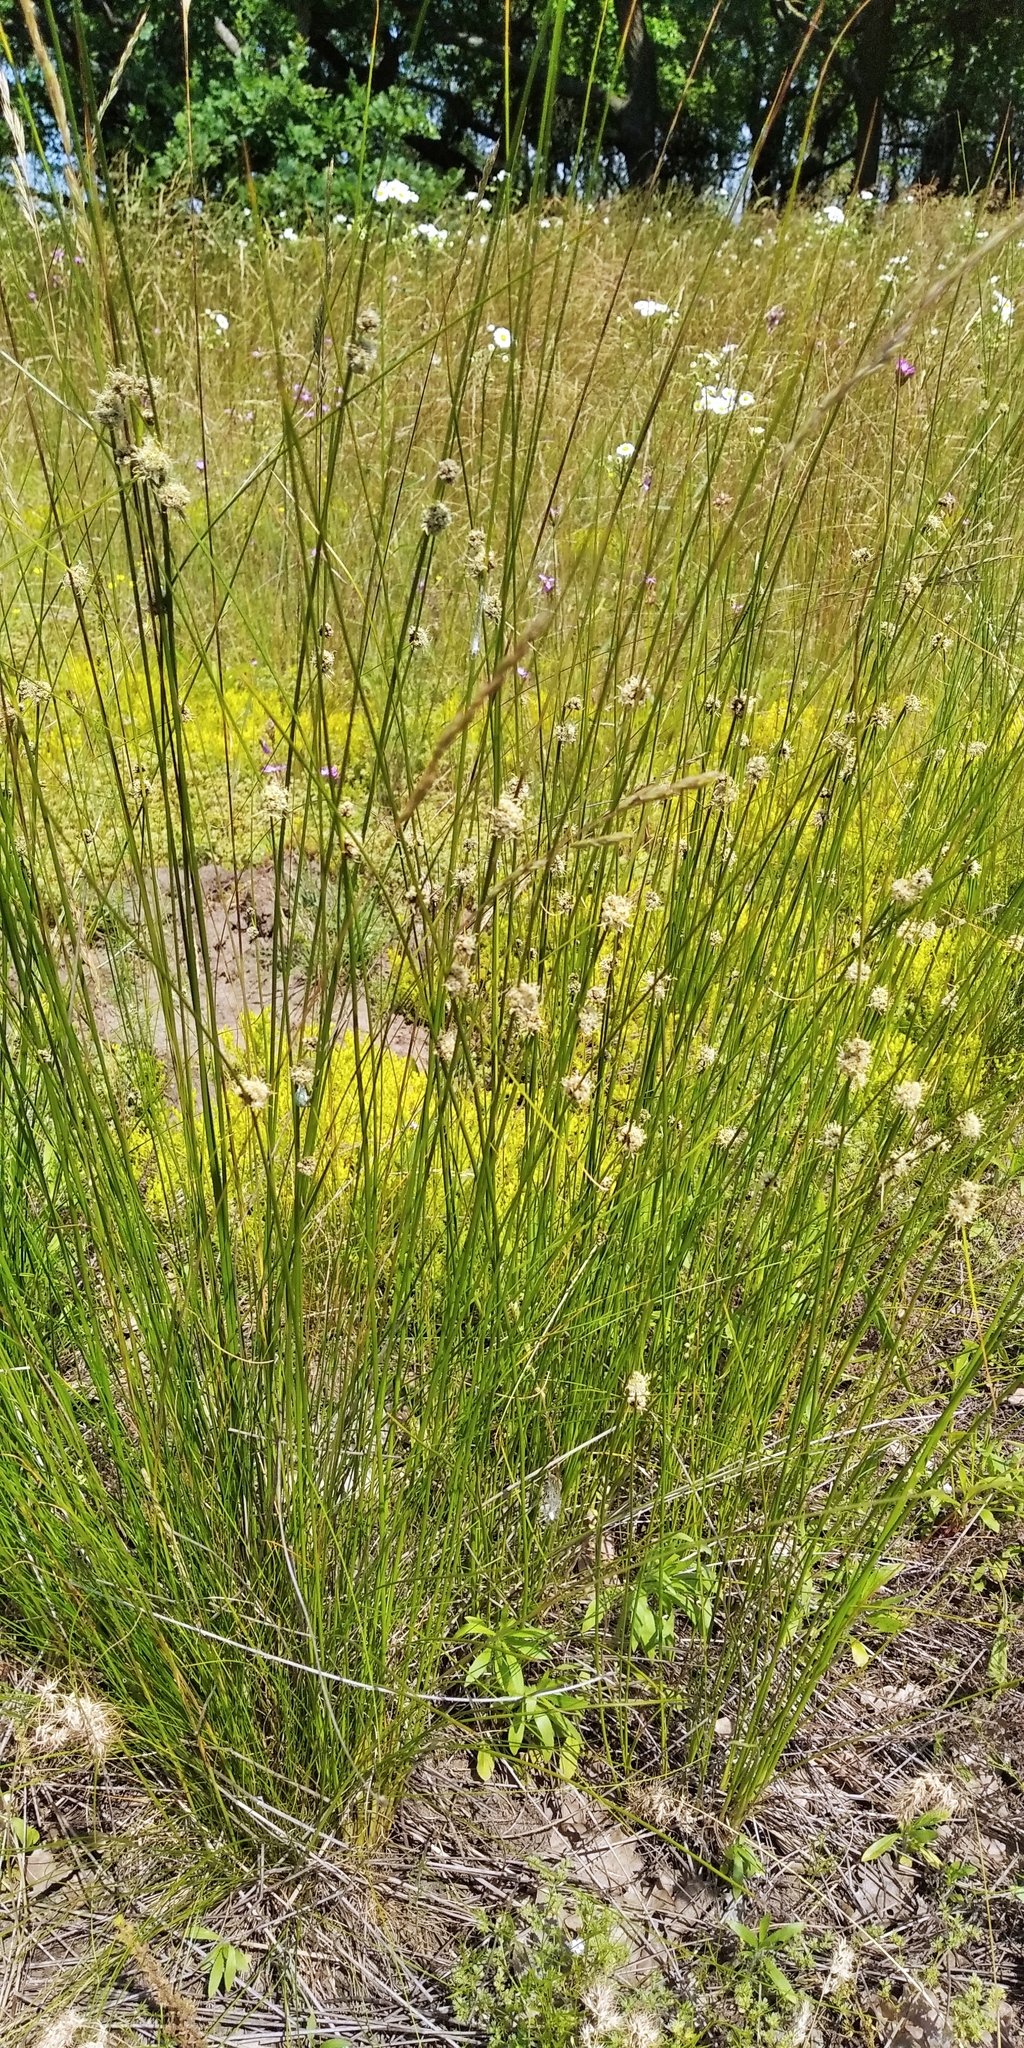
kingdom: Plantae
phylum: Tracheophyta
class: Liliopsida
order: Poales
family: Cyperaceae
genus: Scirpoides
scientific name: Scirpoides holoschoenus
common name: Round-headed club-rush
